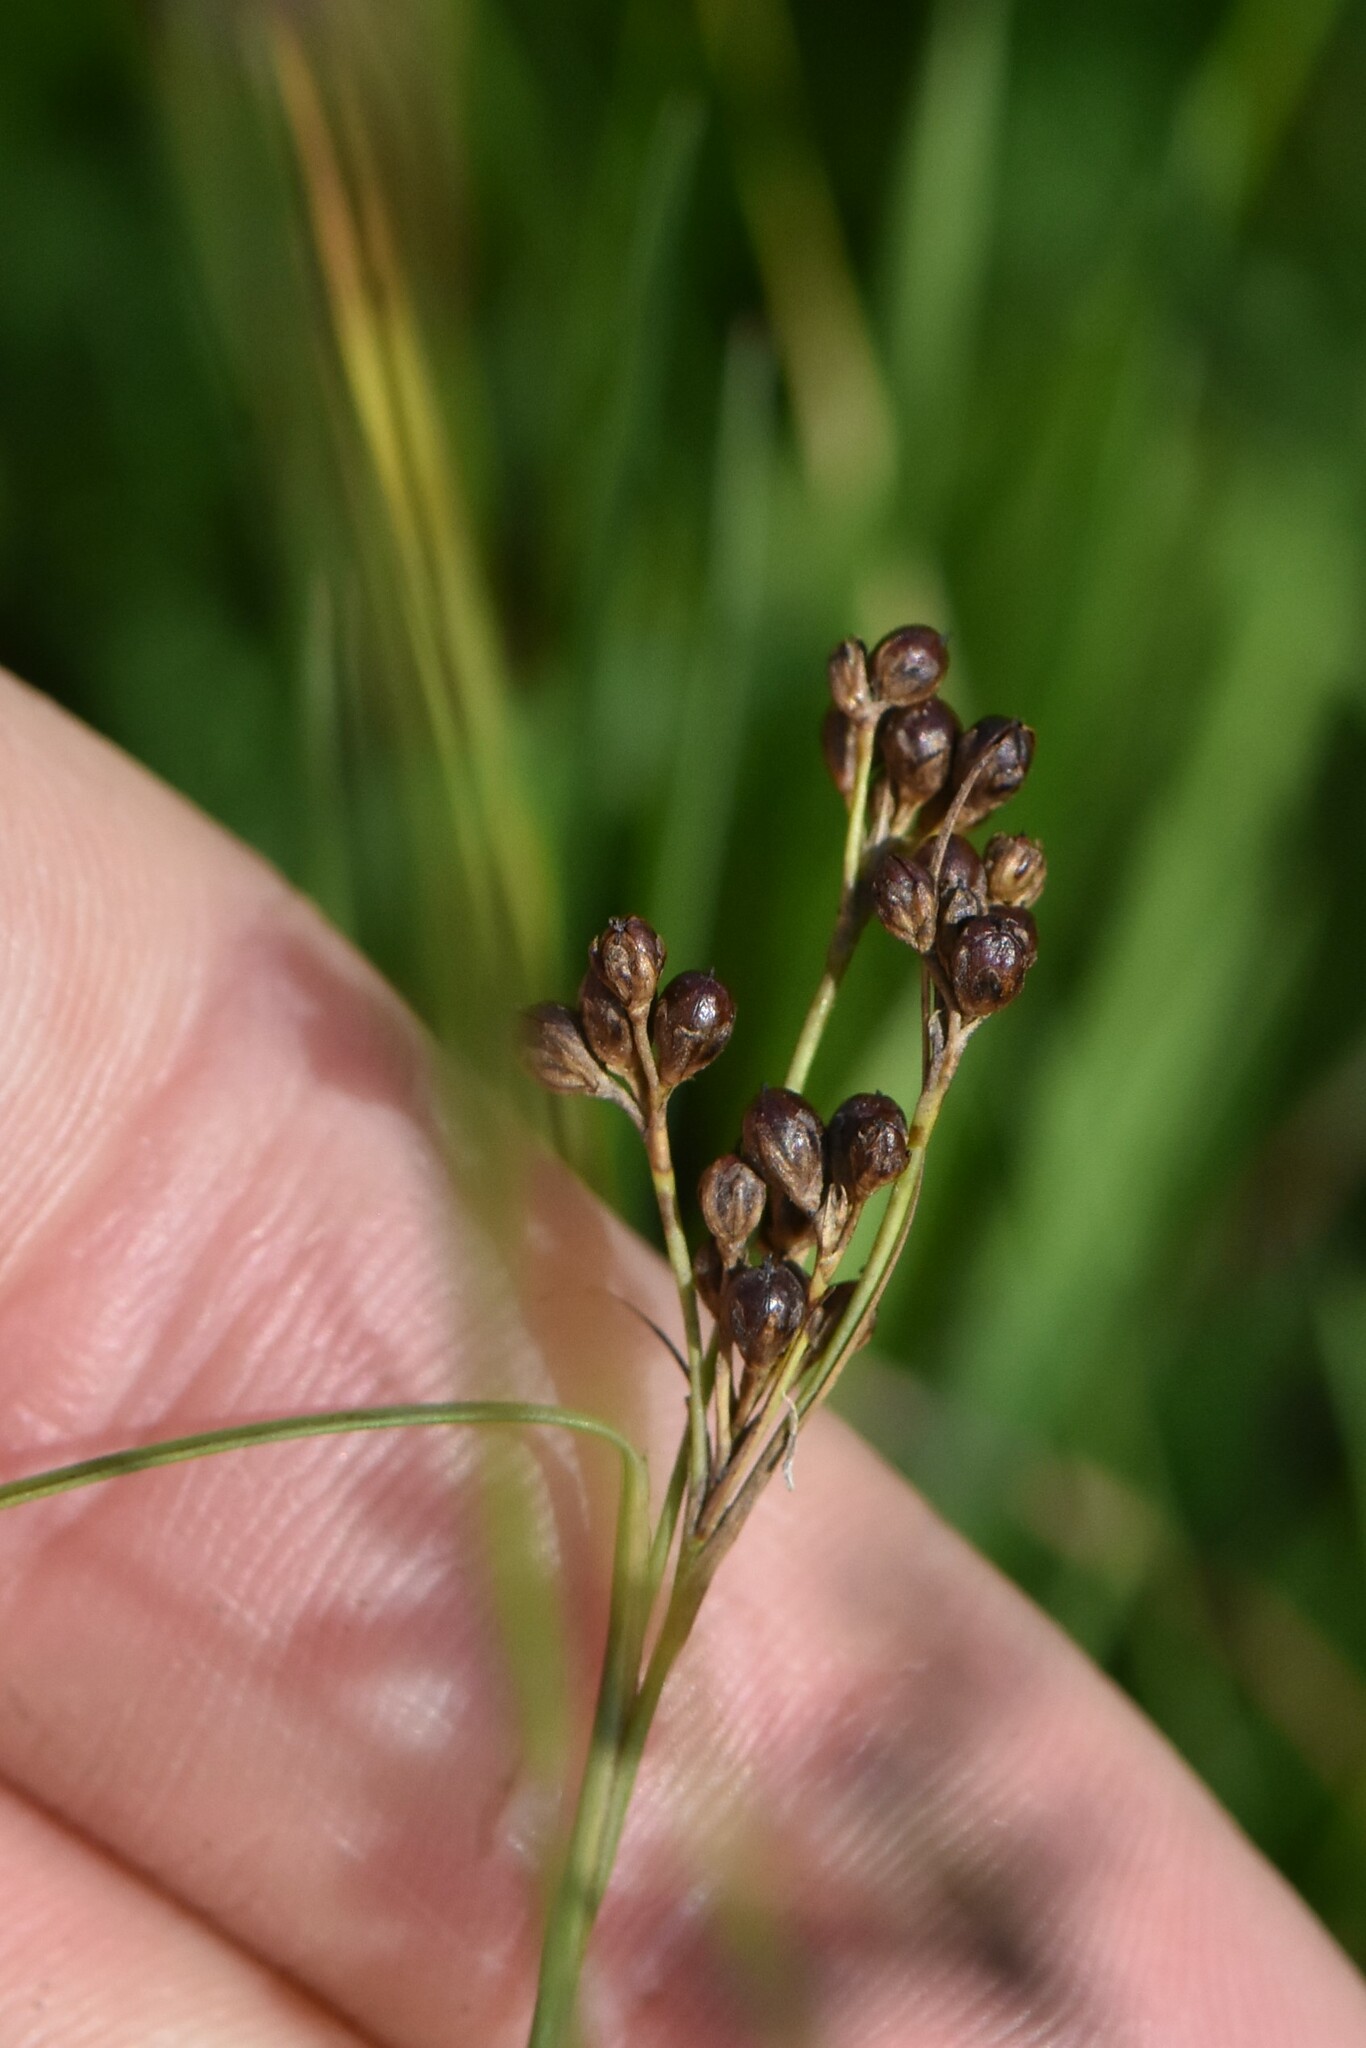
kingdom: Plantae
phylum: Tracheophyta
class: Liliopsida
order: Poales
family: Juncaceae
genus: Juncus
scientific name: Juncus compressus
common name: Round-fruited rush
